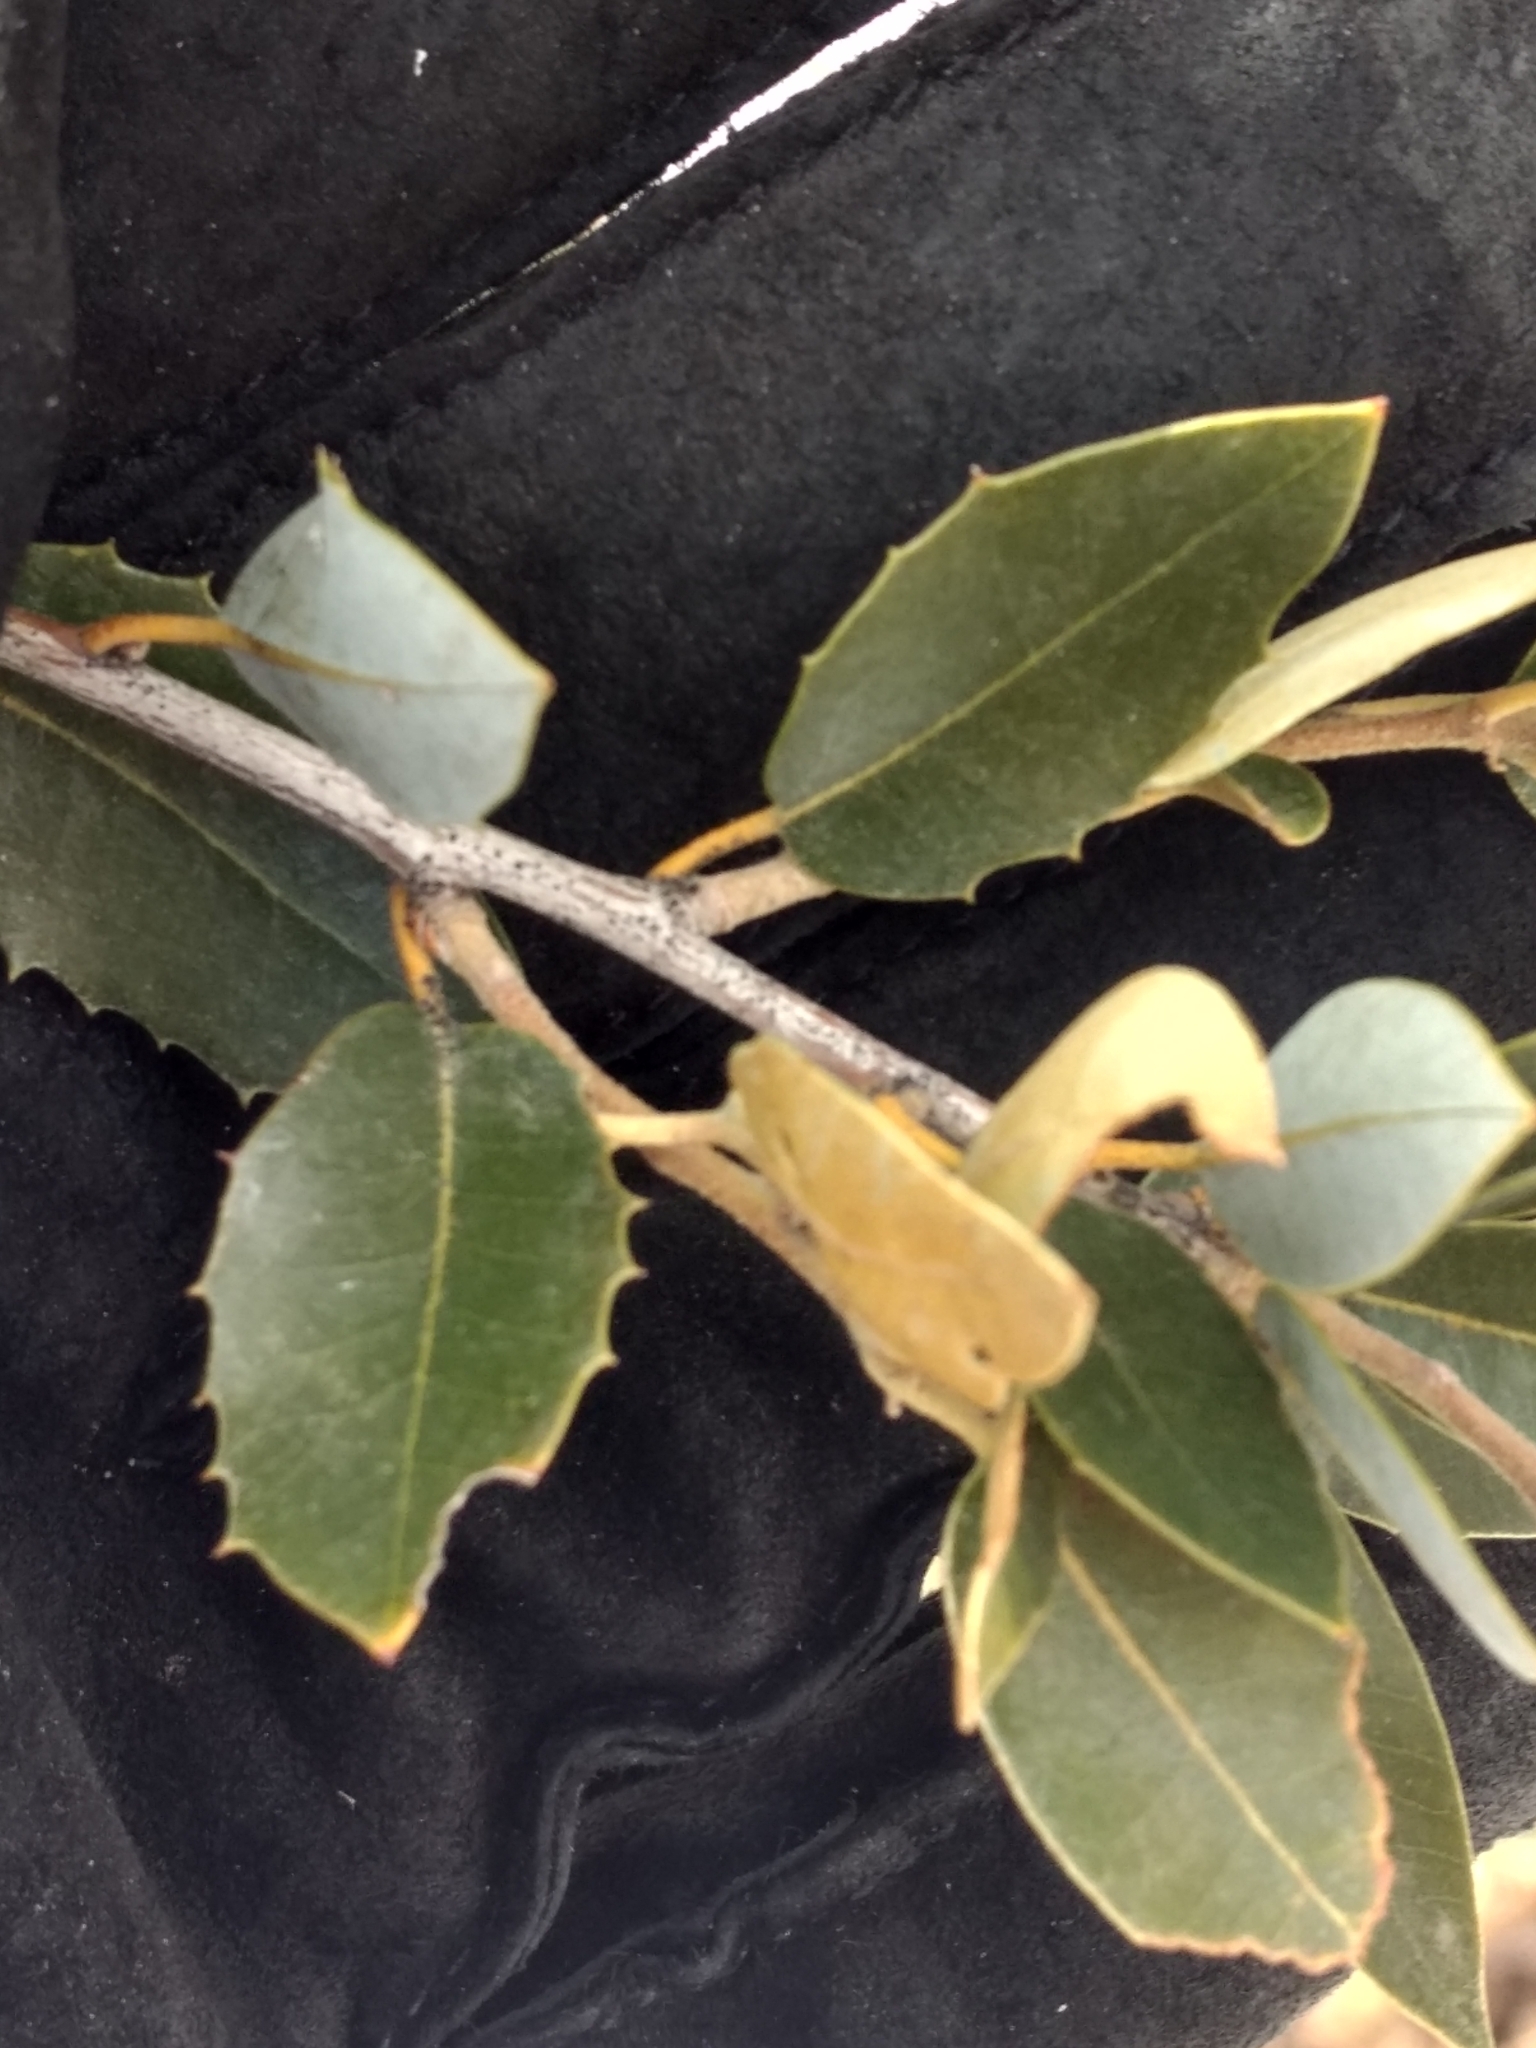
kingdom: Plantae
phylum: Tracheophyta
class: Magnoliopsida
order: Fagales
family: Fagaceae
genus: Quercus
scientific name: Quercus chrysolepis
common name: Canyon live oak
